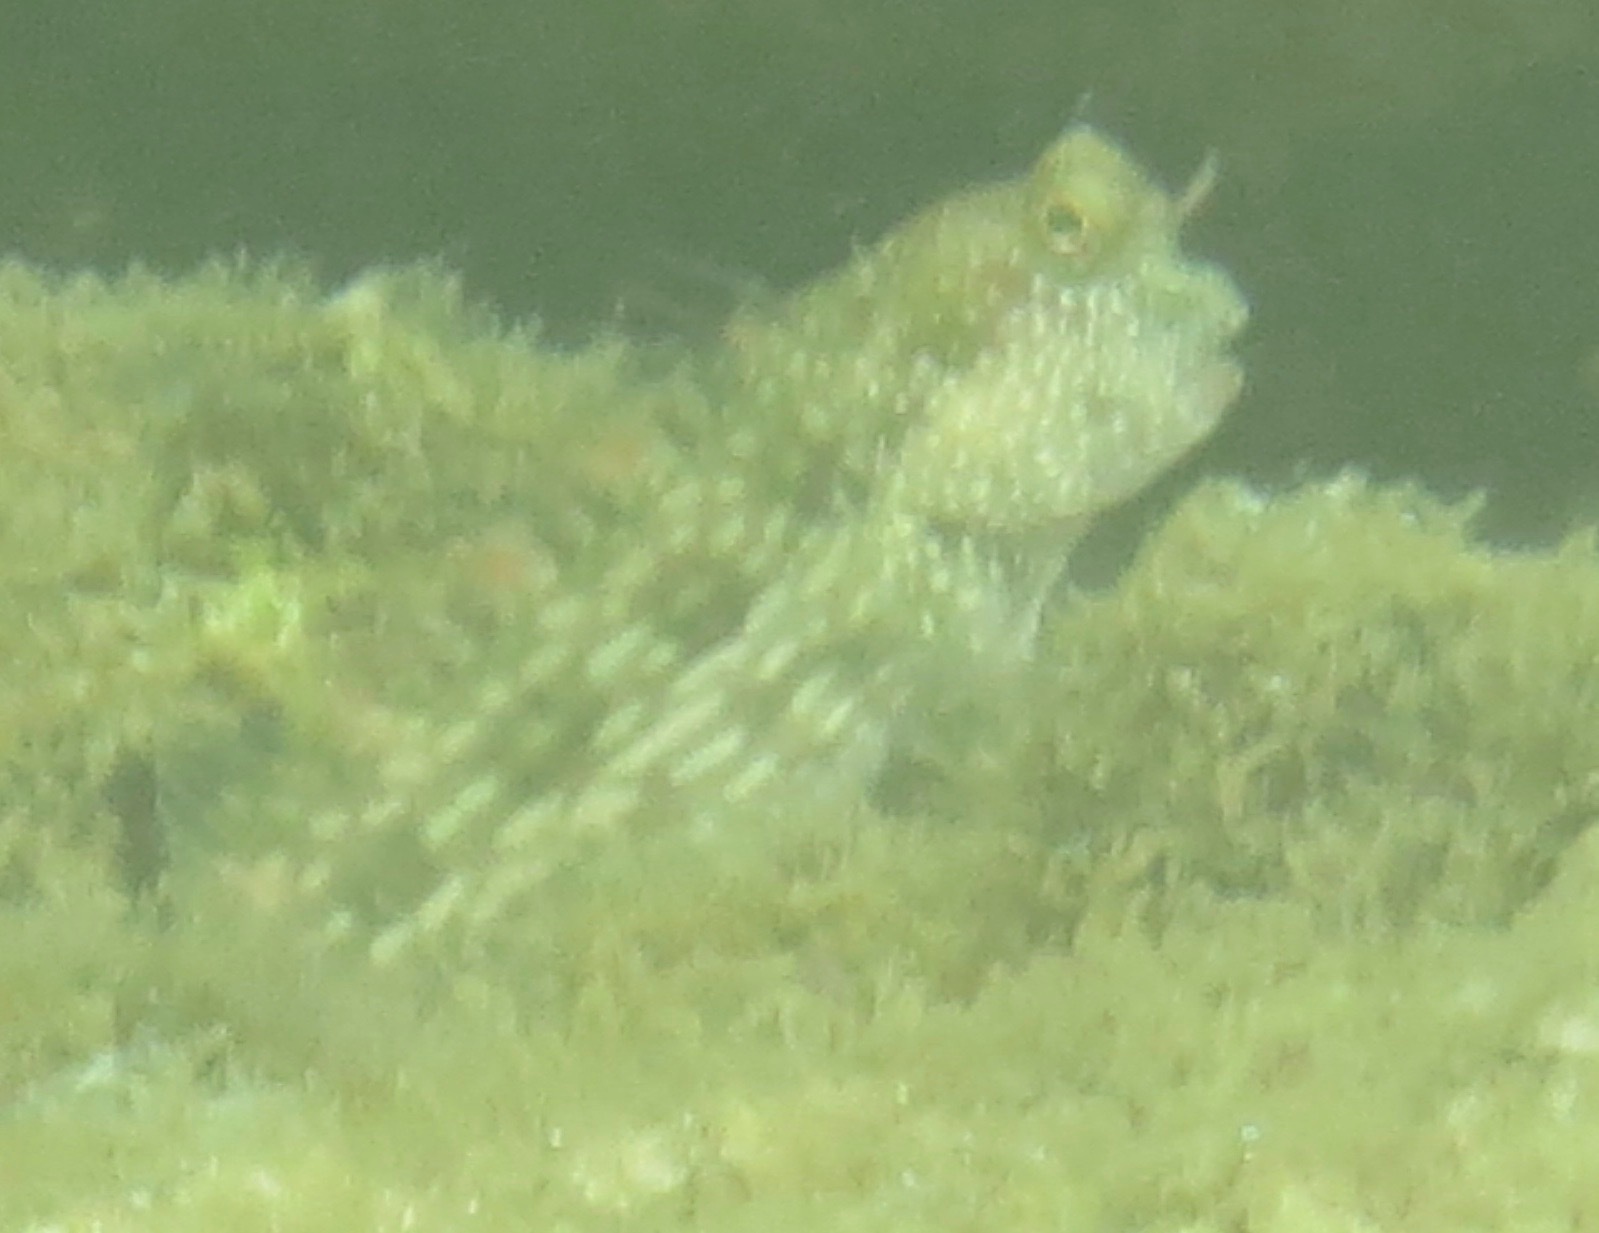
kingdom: Animalia
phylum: Chordata
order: Perciformes
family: Blenniidae
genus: Salarias
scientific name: Salarias alboguttatus
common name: White-spotted blenny
